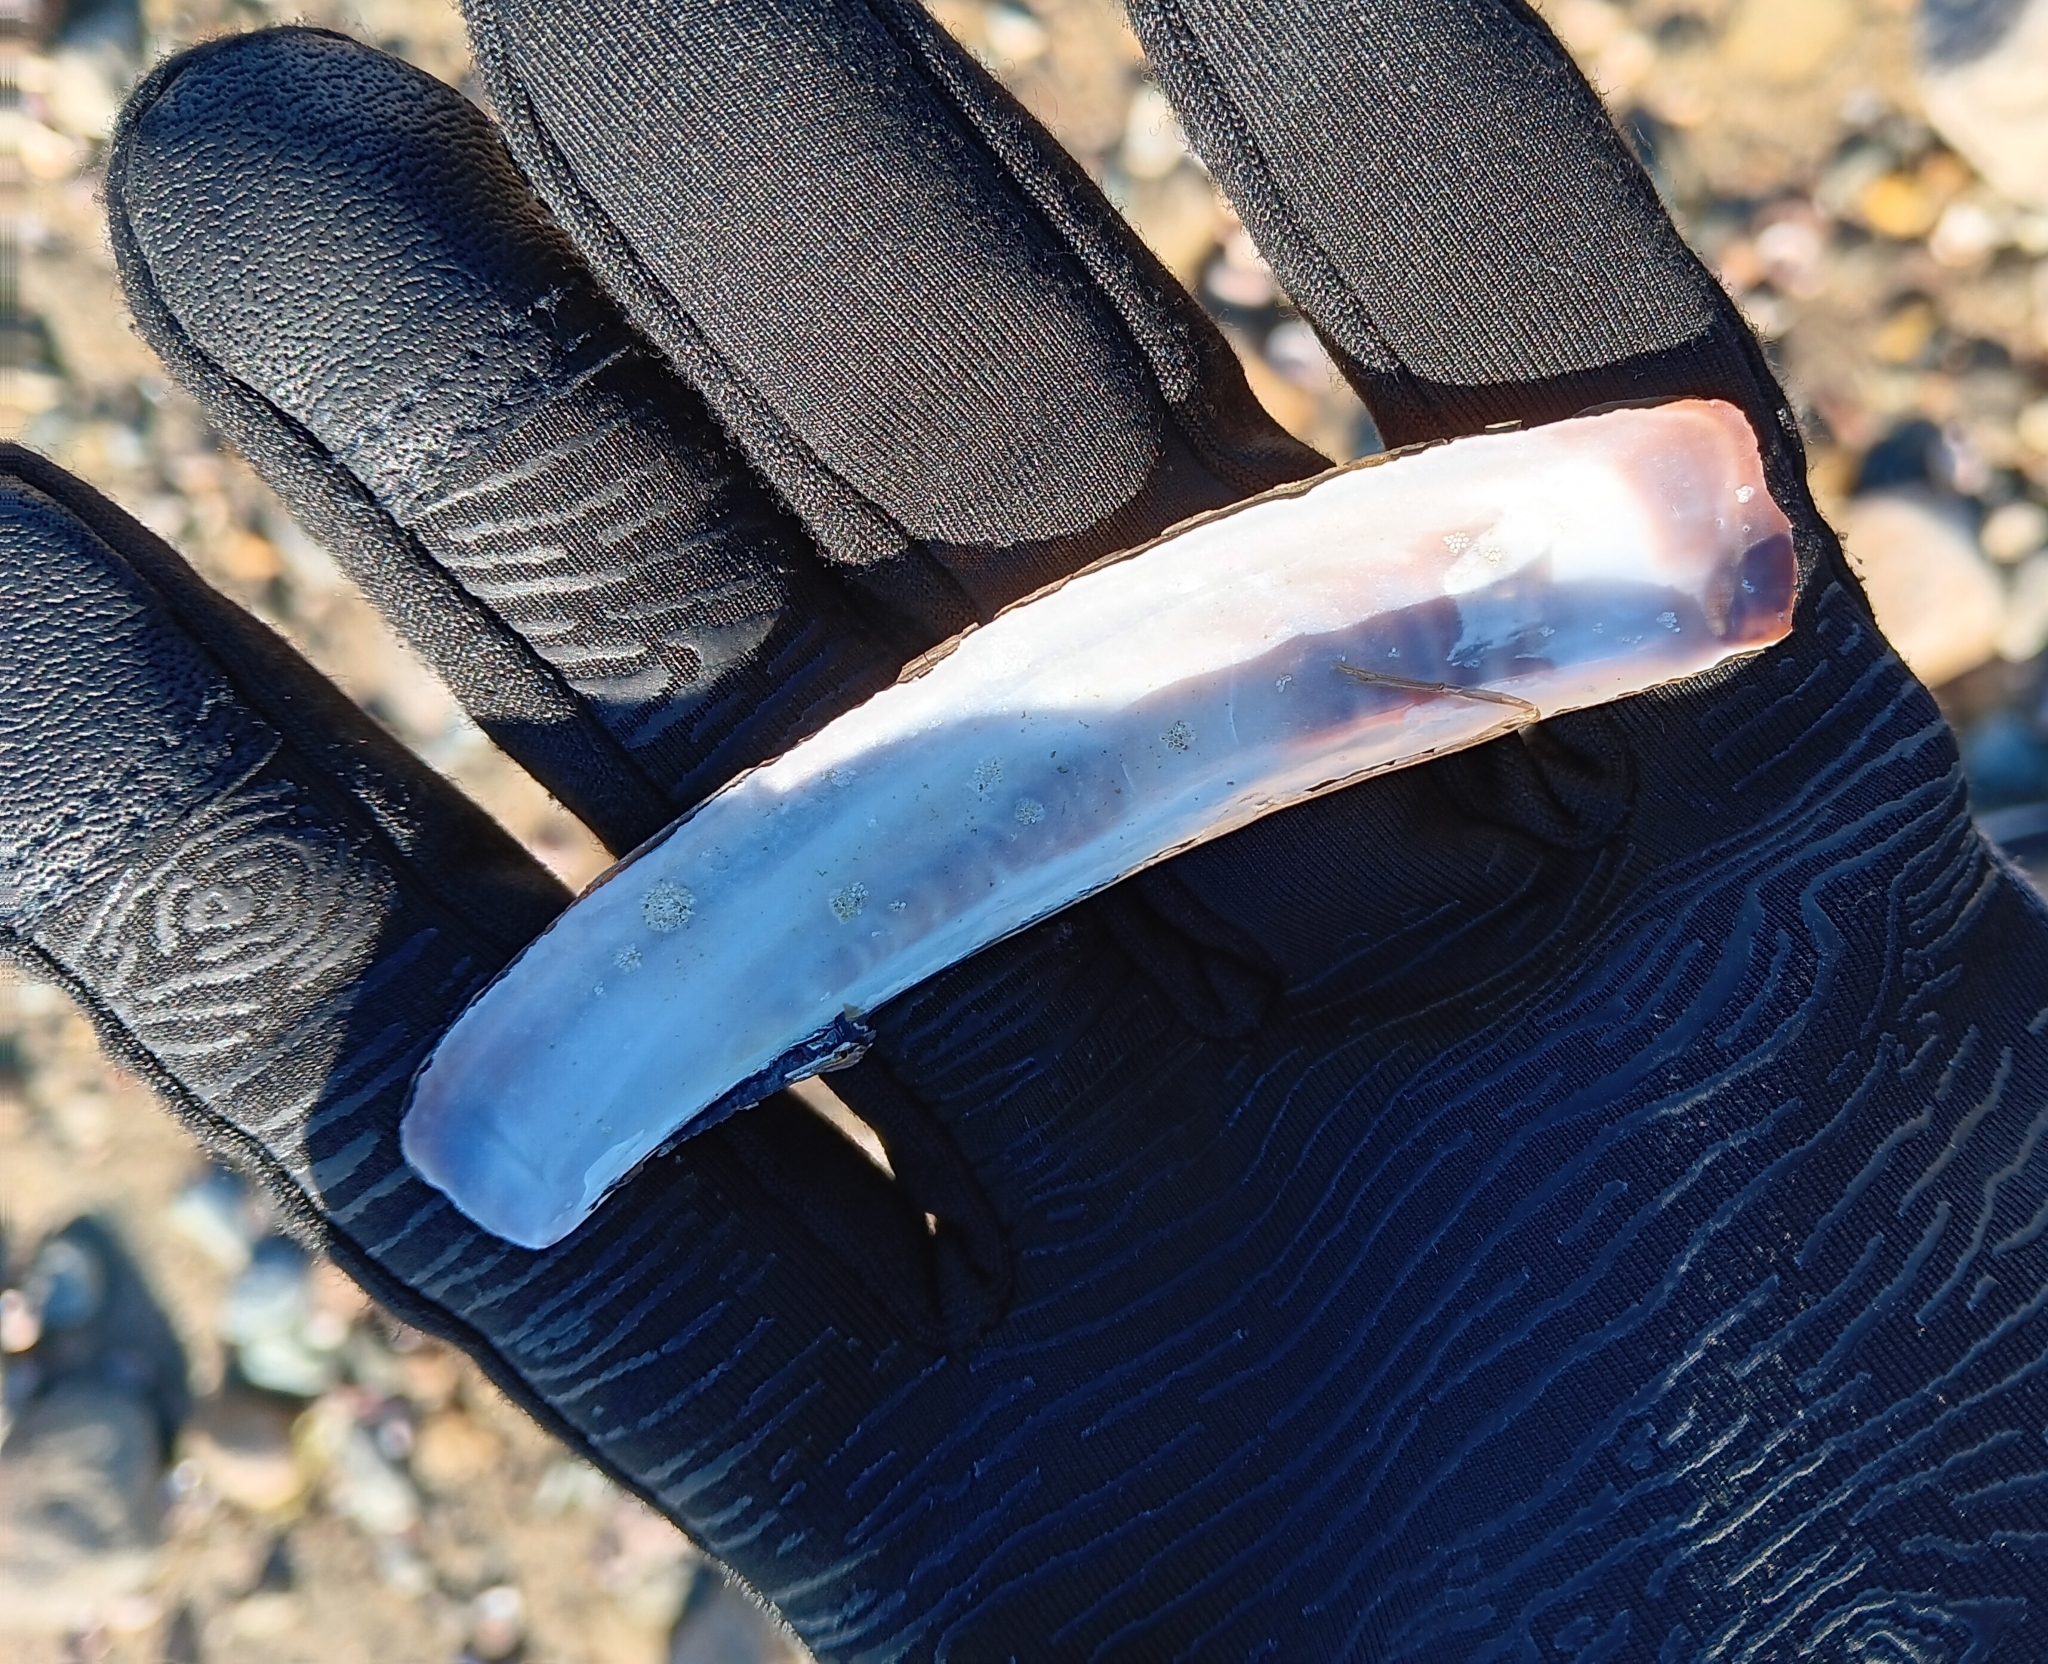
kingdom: Animalia
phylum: Mollusca
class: Bivalvia
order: Adapedonta
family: Pharidae
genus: Ensis
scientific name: Ensis leei
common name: American jack knife clam
